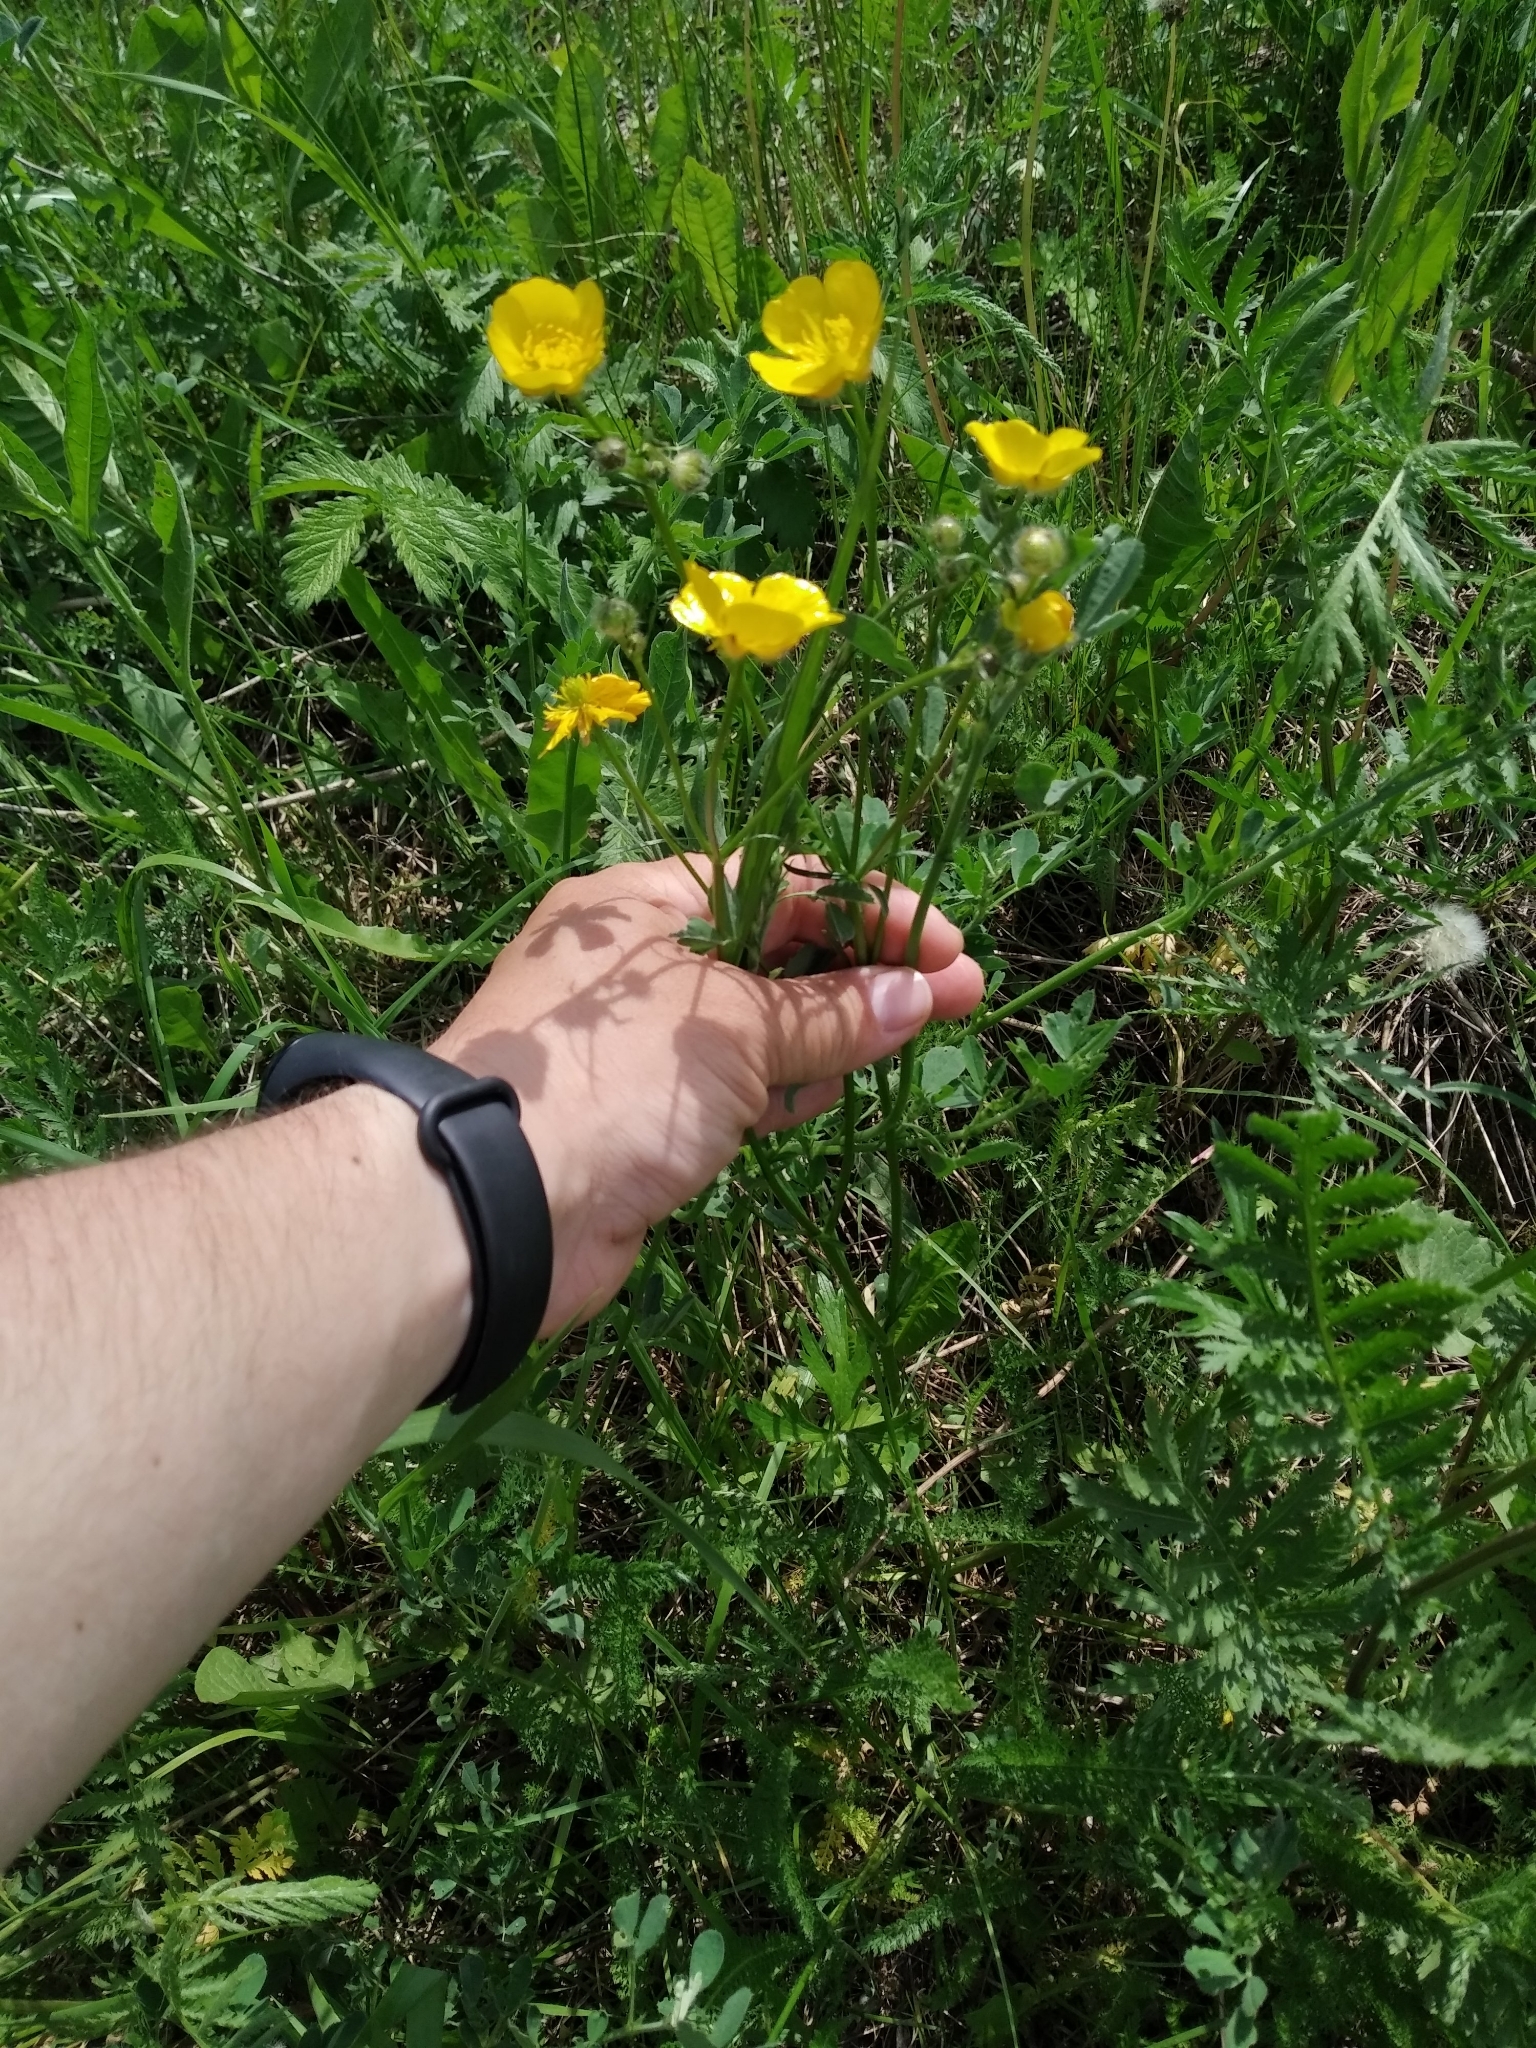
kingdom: Plantae
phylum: Tracheophyta
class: Magnoliopsida
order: Ranunculales
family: Ranunculaceae
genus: Ranunculus
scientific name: Ranunculus polyanthemos
